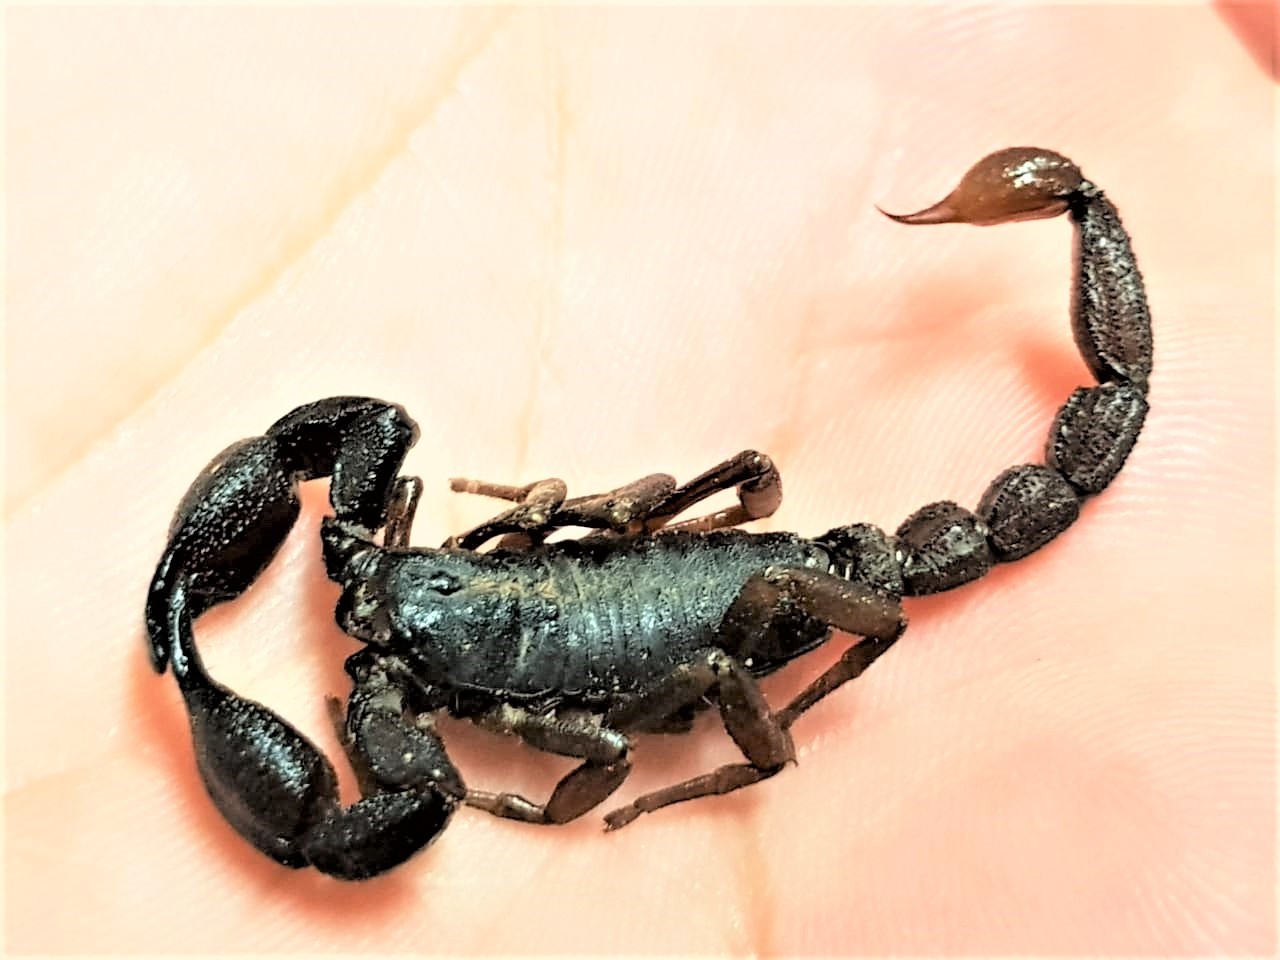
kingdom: Animalia
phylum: Arthropoda
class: Arachnida
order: Scorpiones
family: Chactidae
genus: Brotheas
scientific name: Brotheas granulatus
